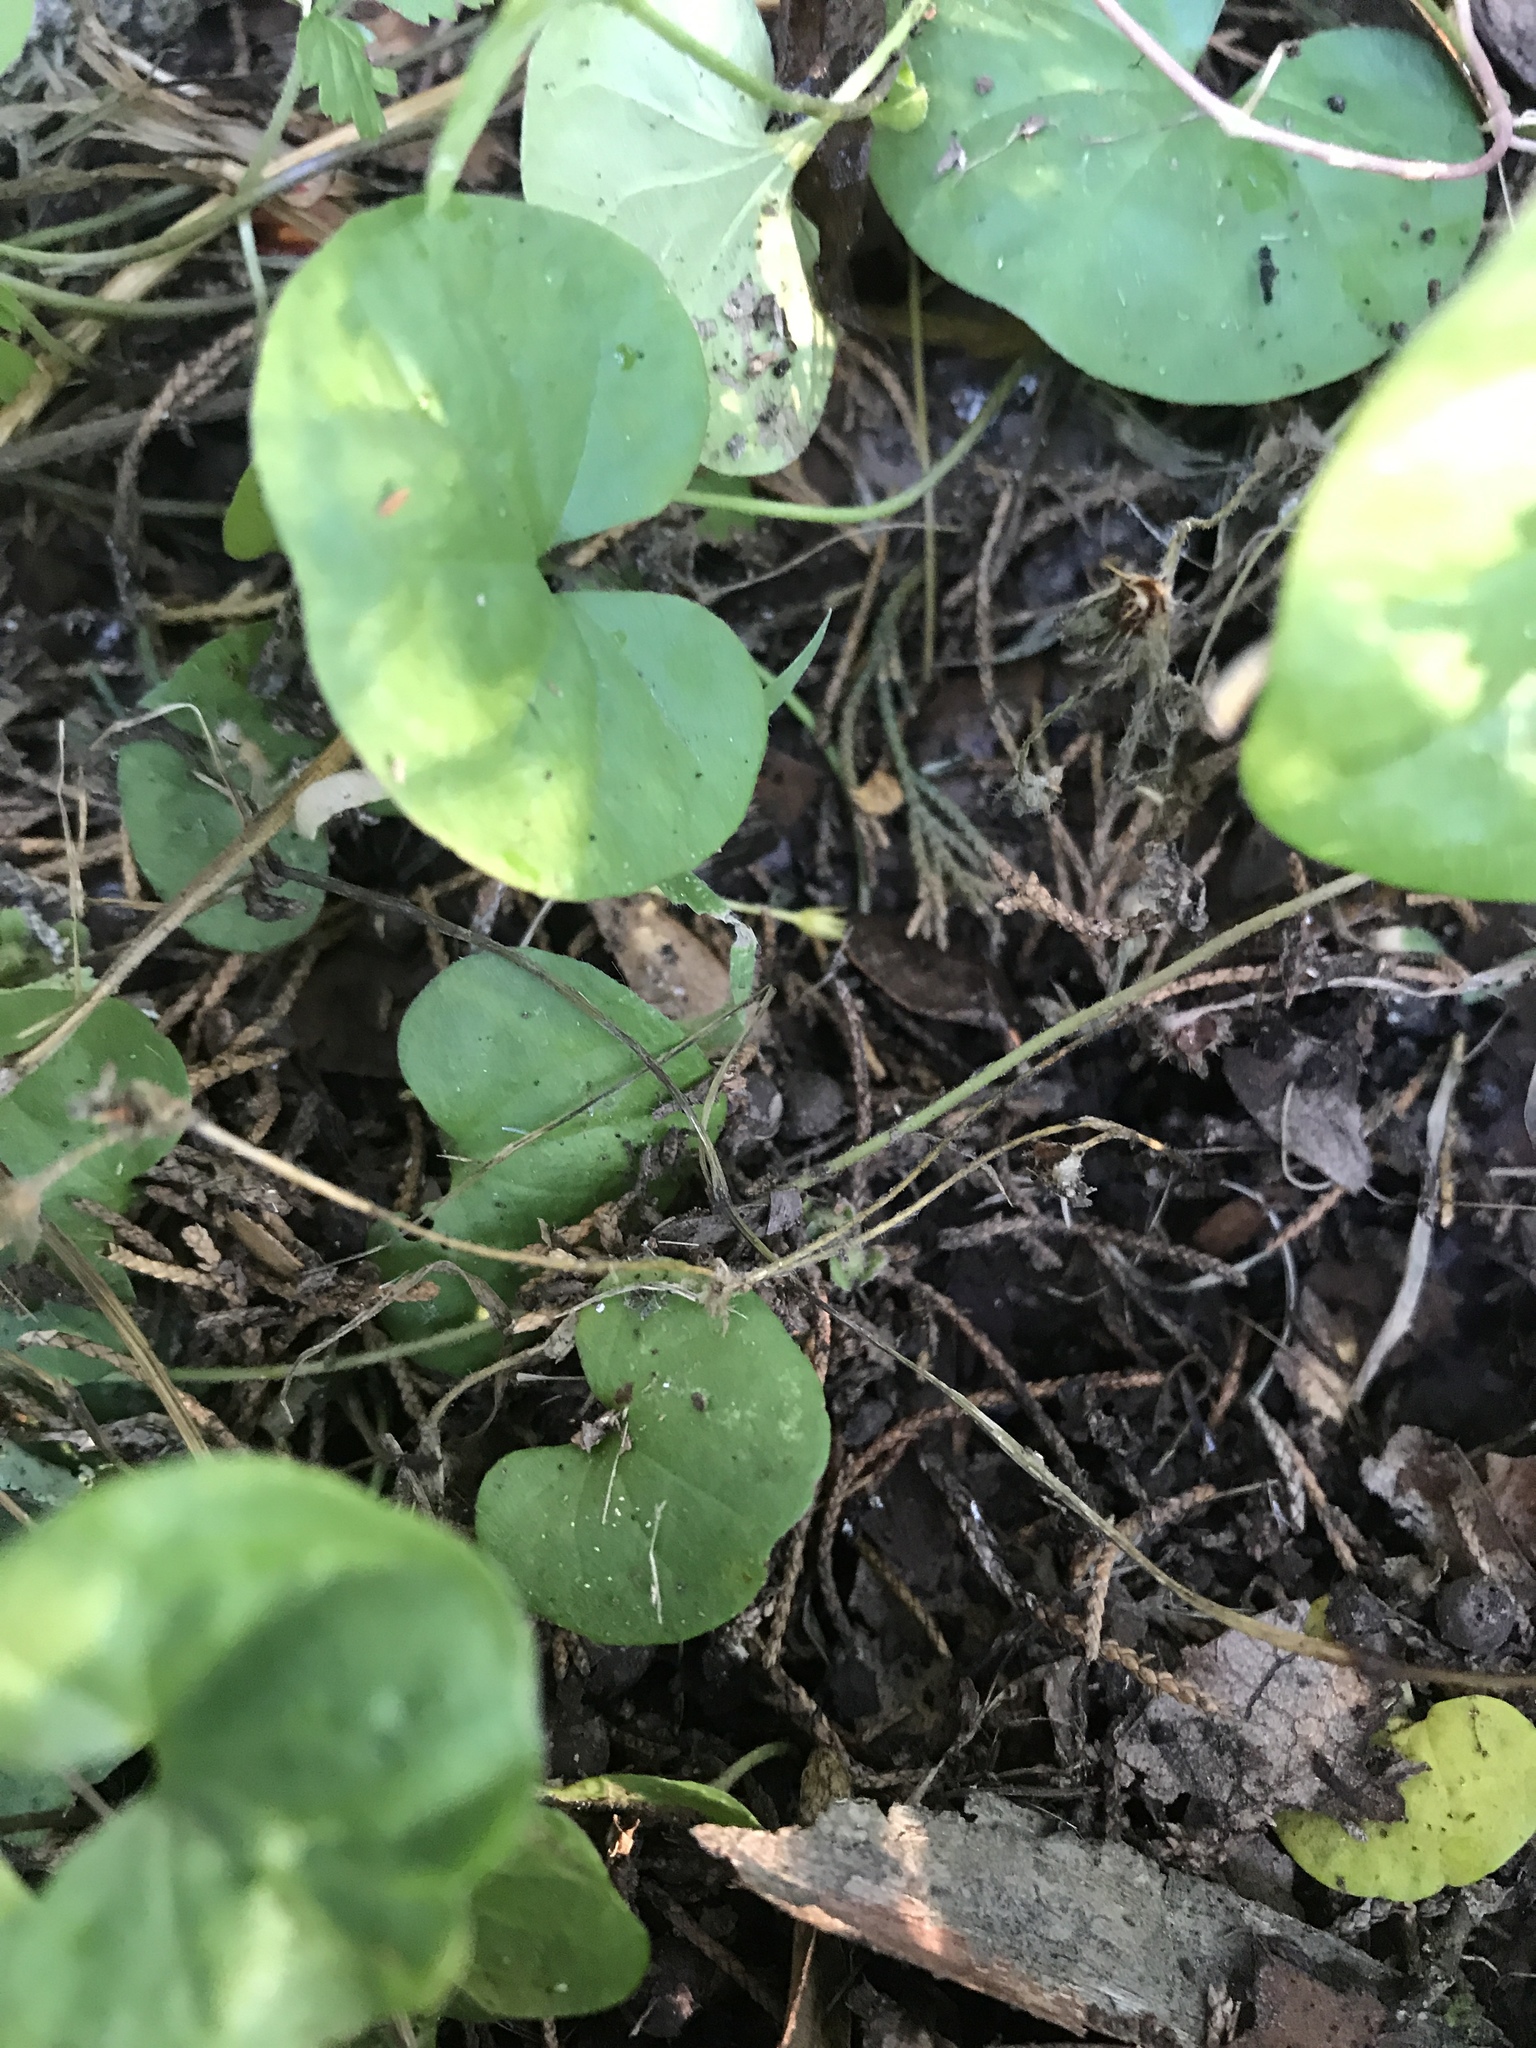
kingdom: Plantae
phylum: Tracheophyta
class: Magnoliopsida
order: Solanales
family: Convolvulaceae
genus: Dichondra
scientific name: Dichondra carolinensis
